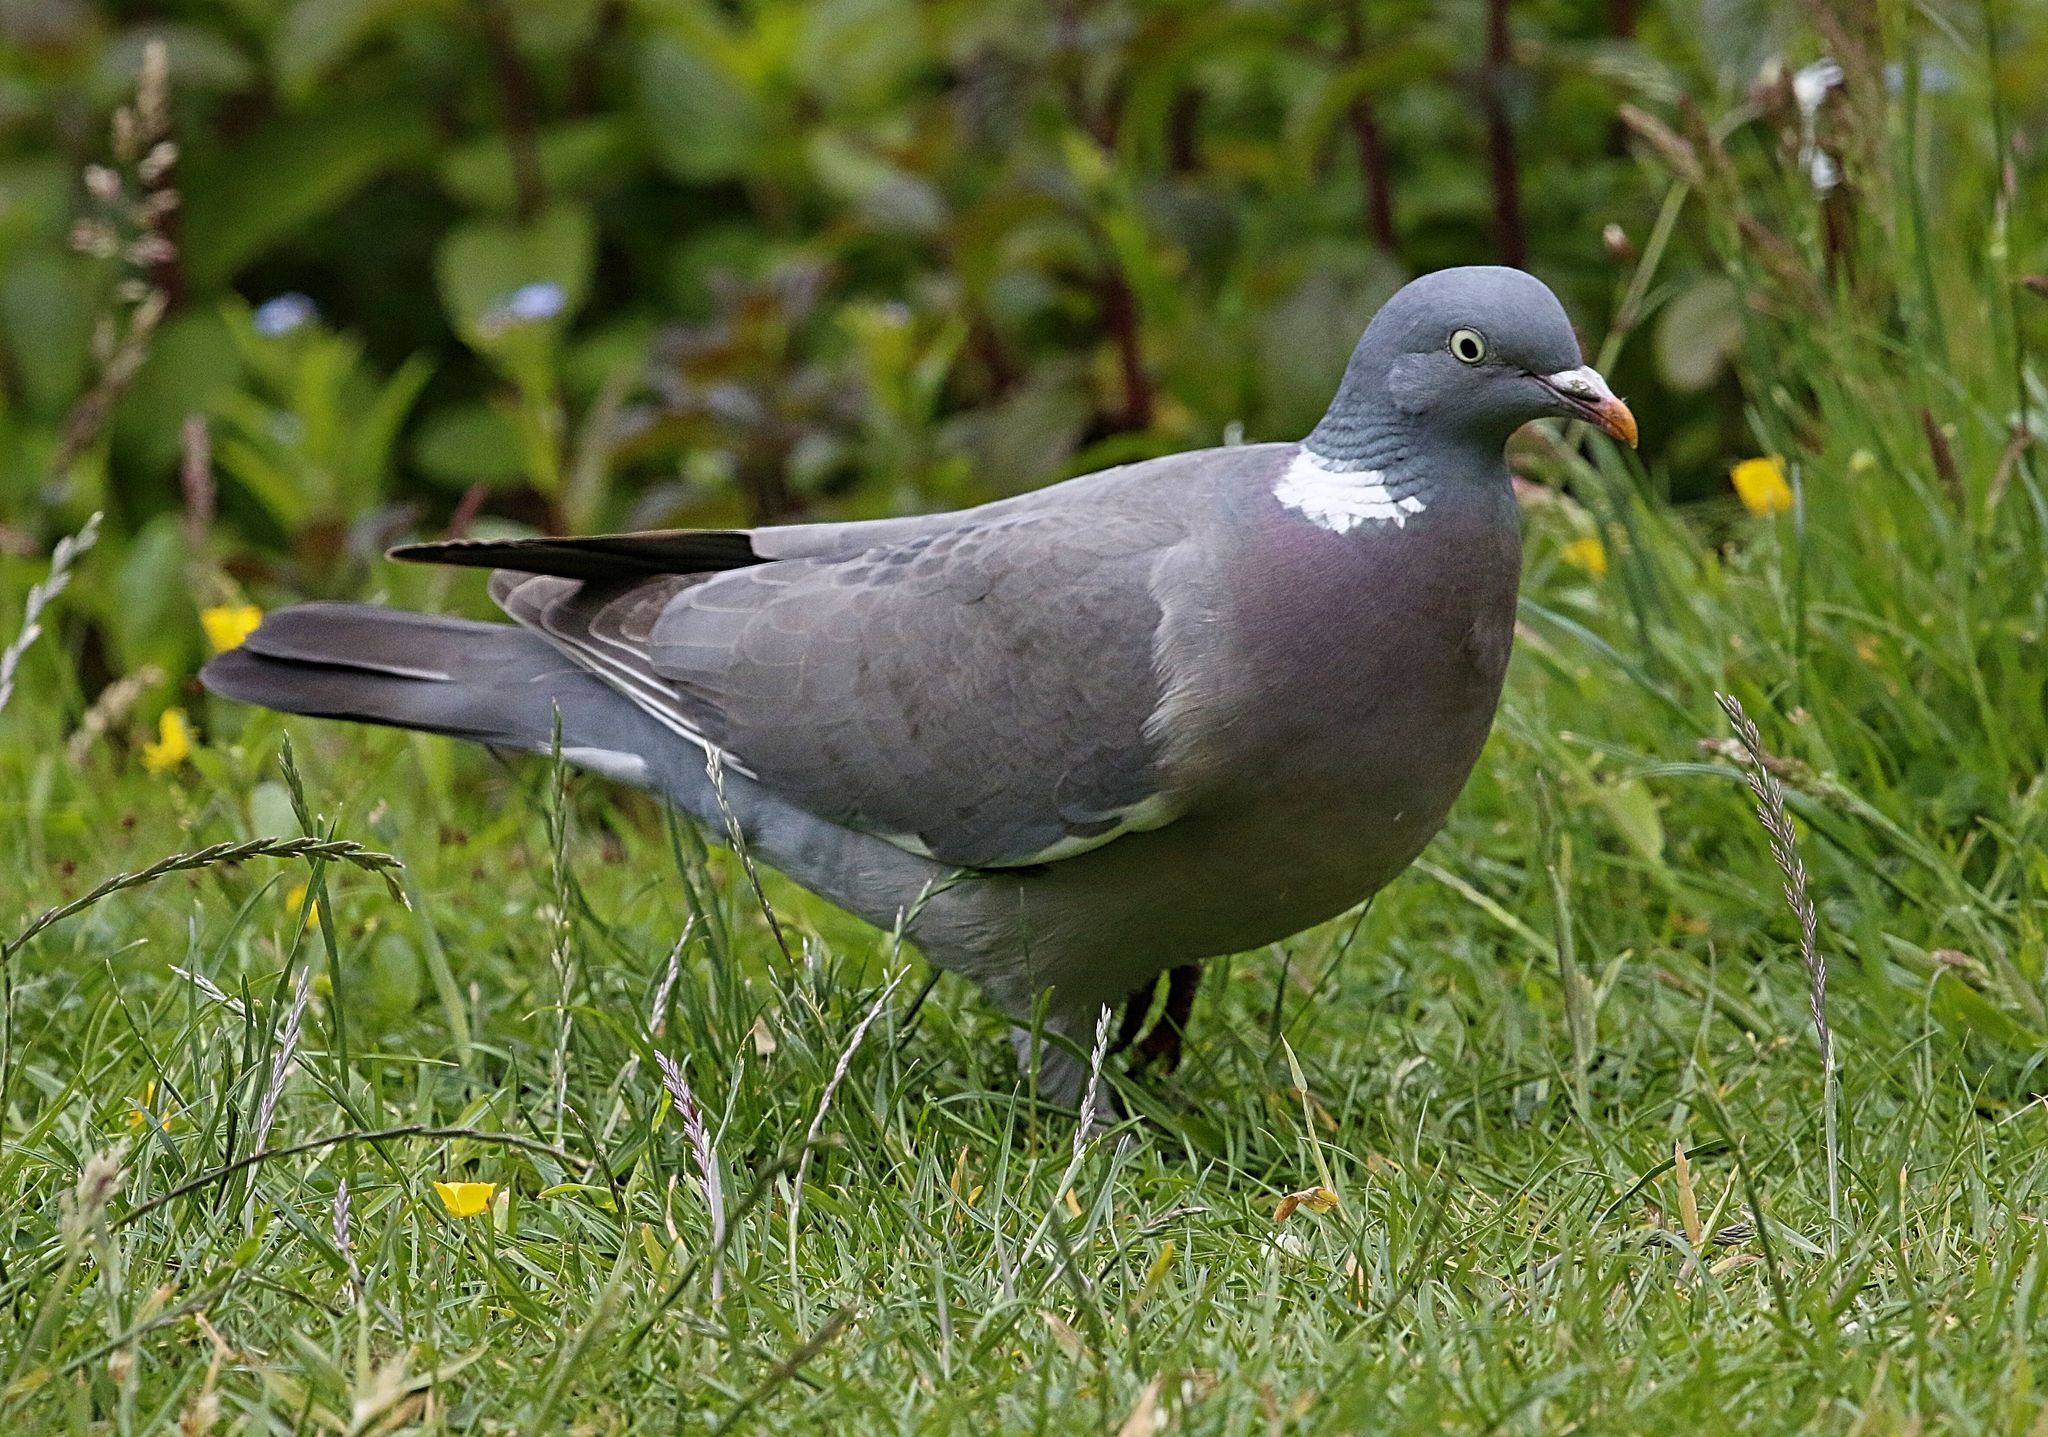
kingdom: Animalia
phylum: Chordata
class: Aves
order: Columbiformes
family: Columbidae
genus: Columba
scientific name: Columba palumbus
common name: Common wood pigeon
